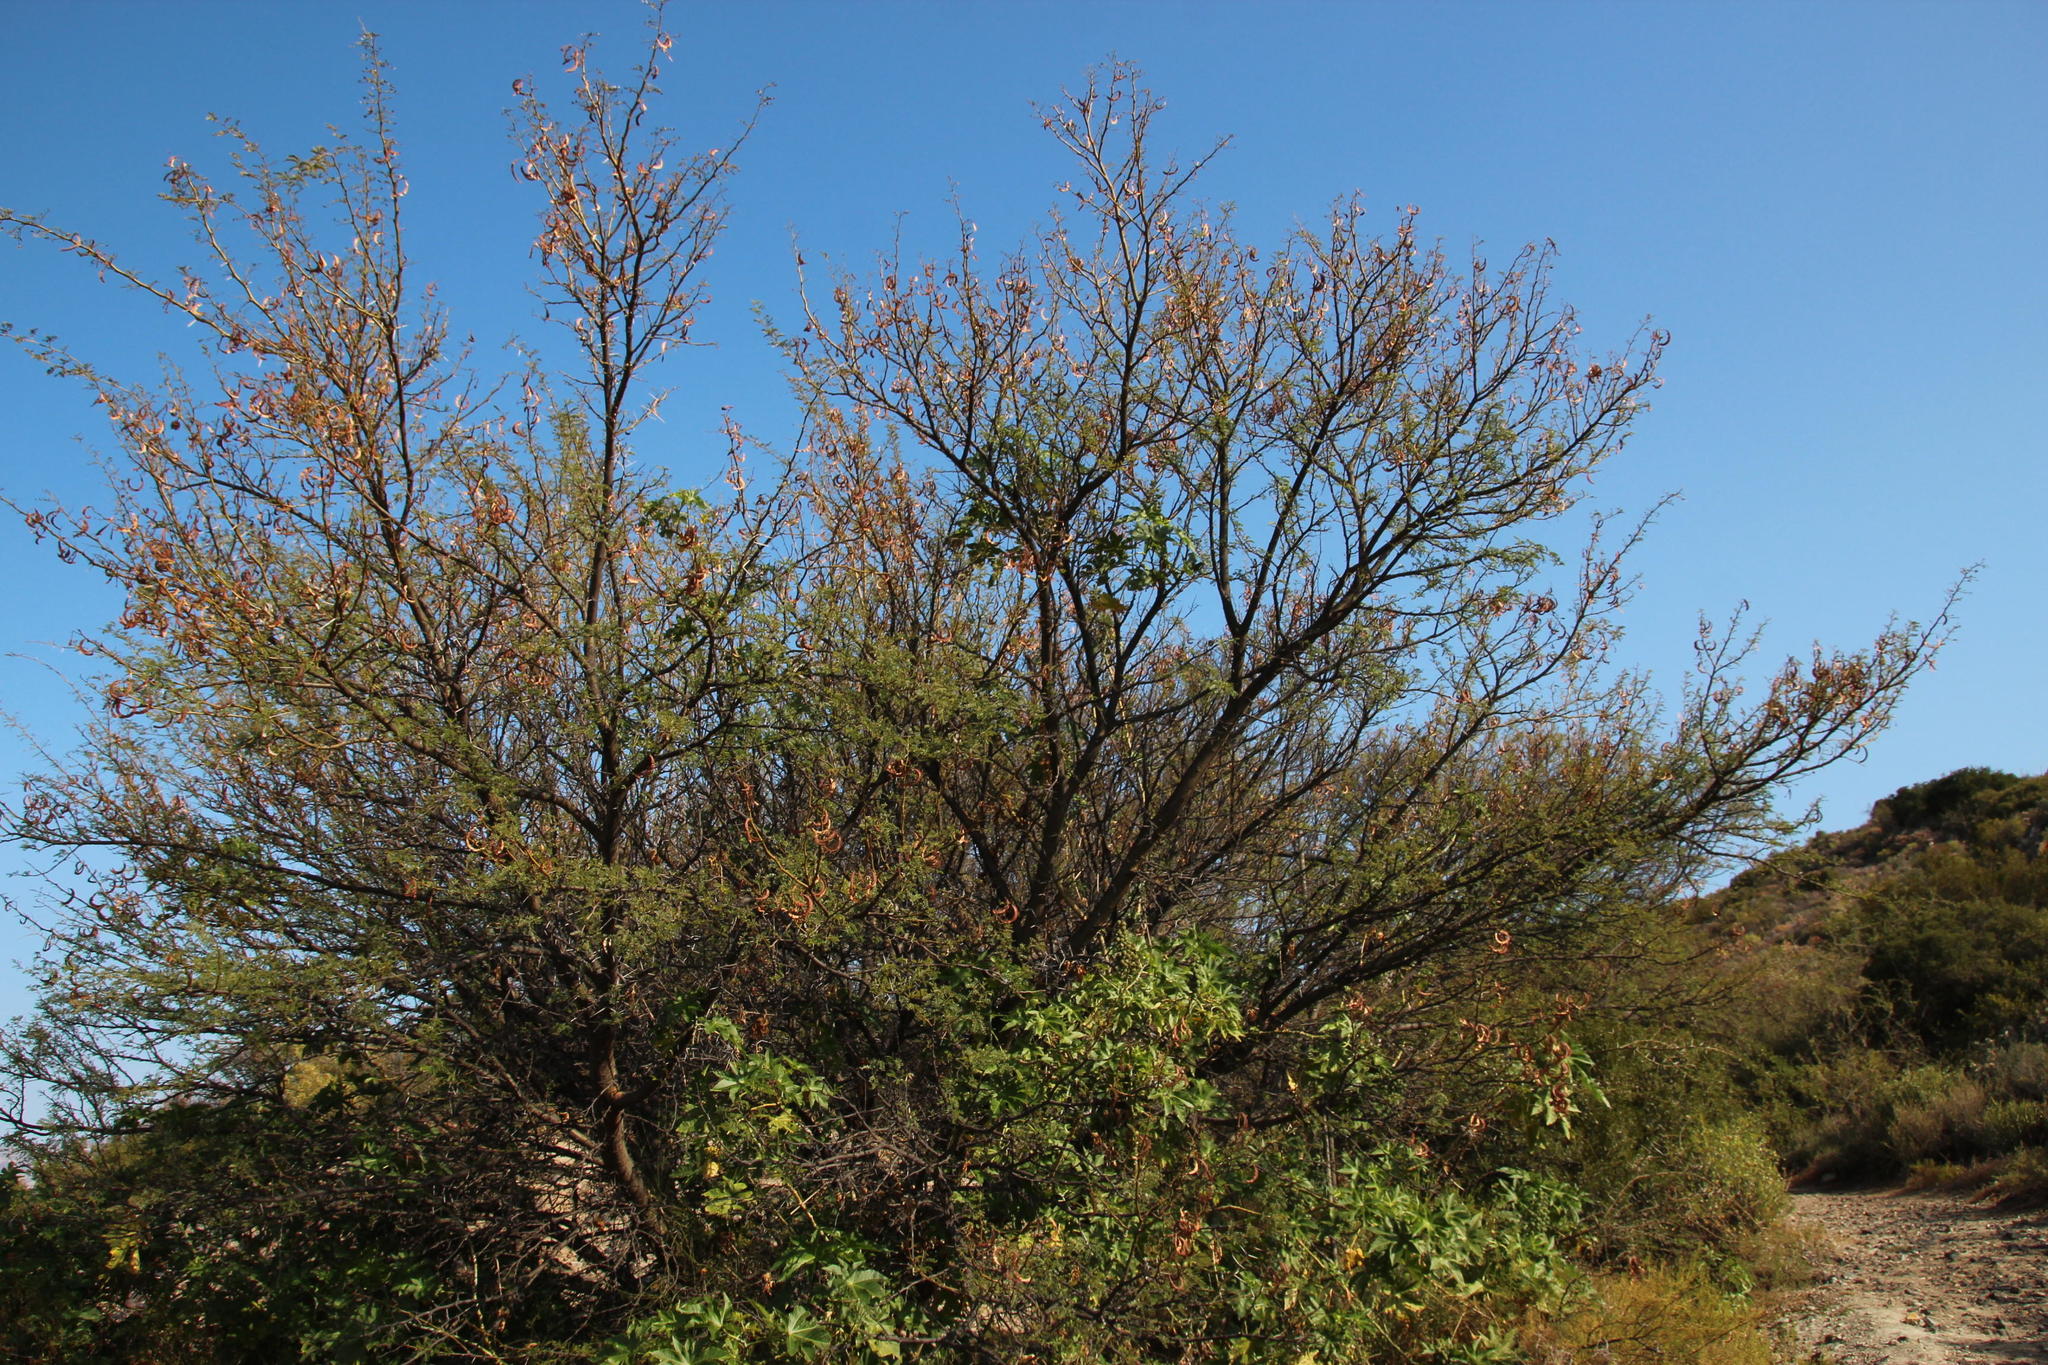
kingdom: Plantae
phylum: Tracheophyta
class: Magnoliopsida
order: Fabales
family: Fabaceae
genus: Vachellia
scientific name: Vachellia karroo
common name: Sweet thorn
